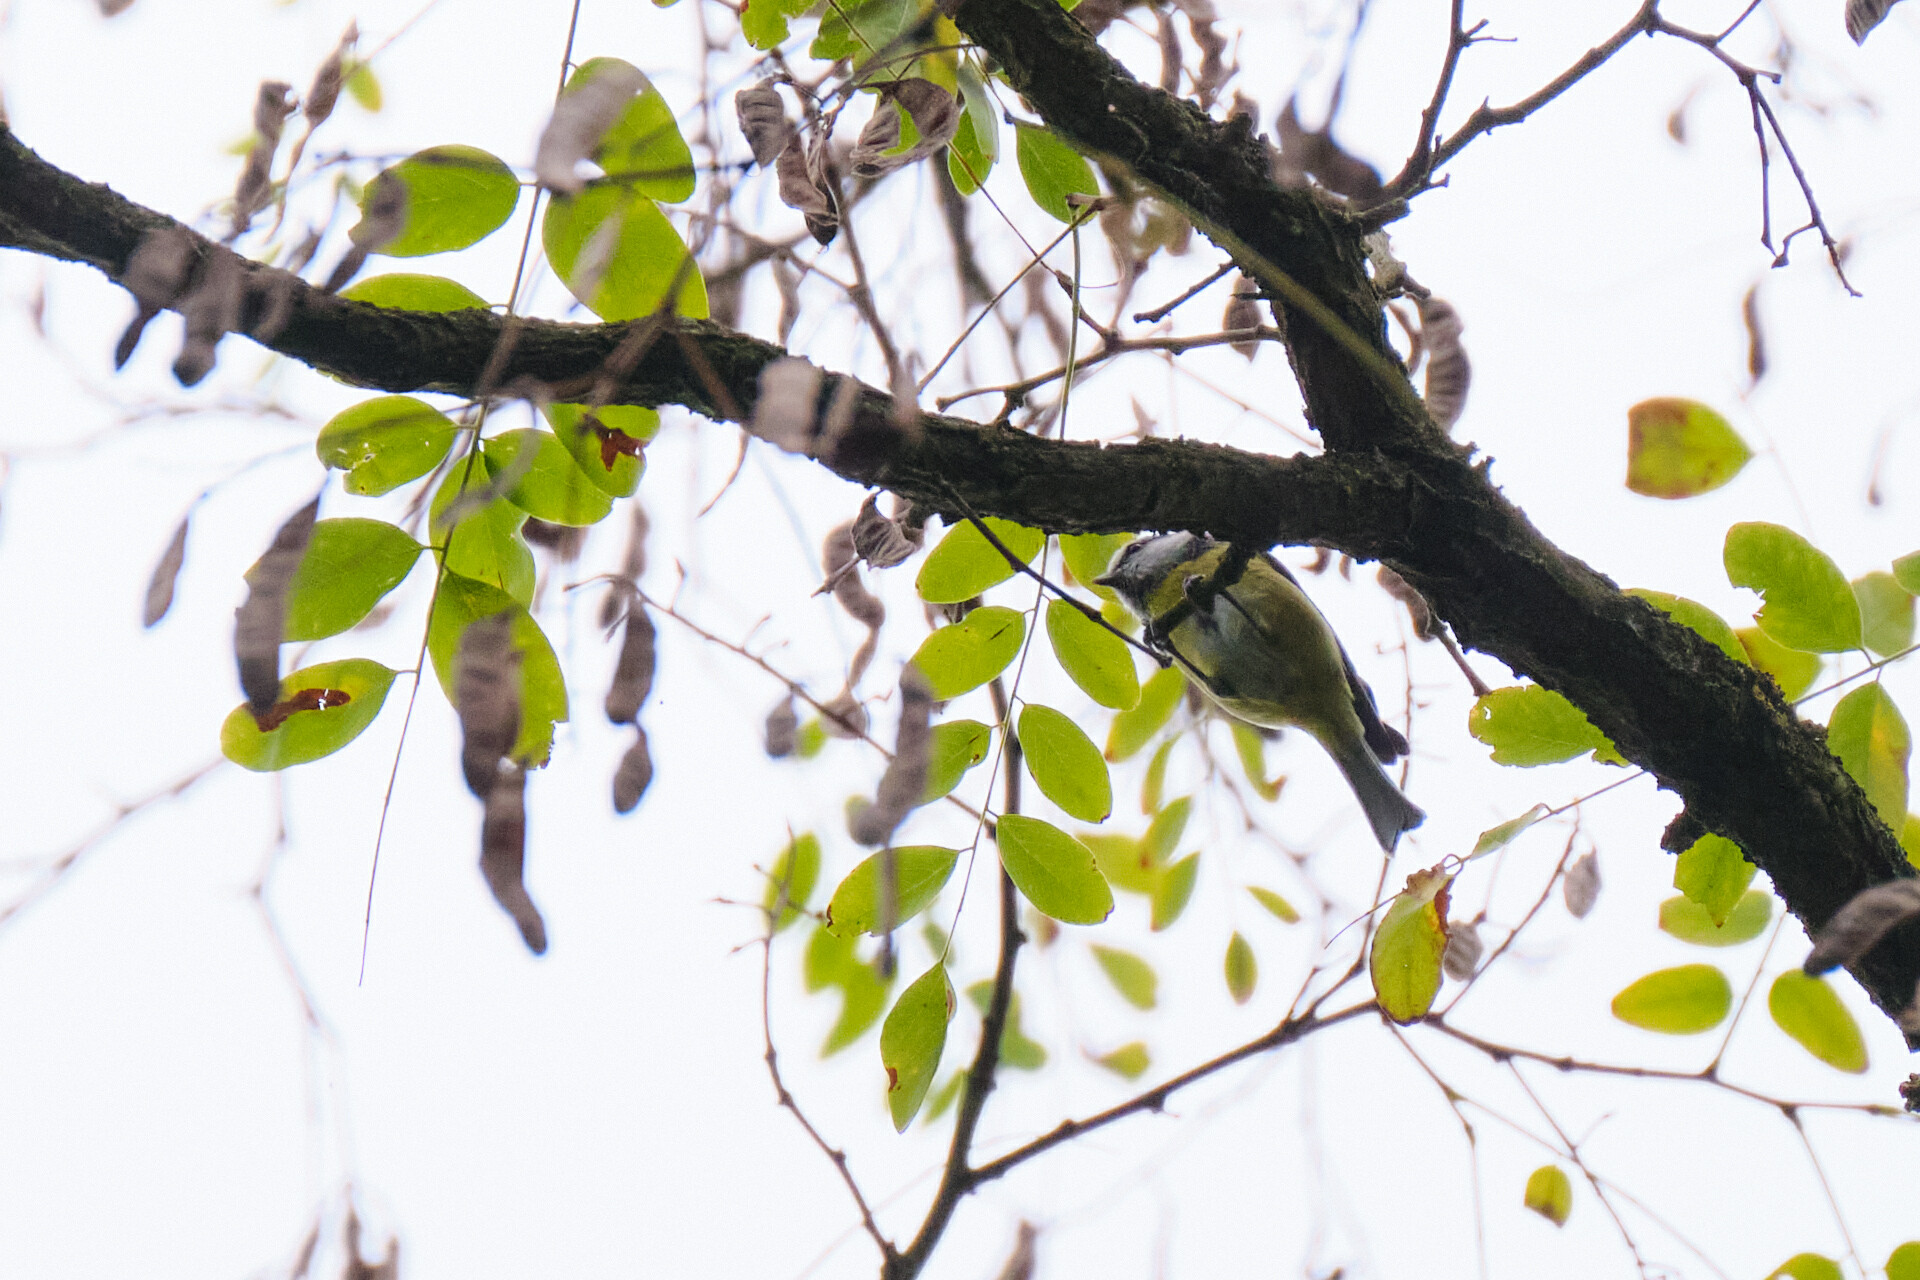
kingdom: Animalia
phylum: Chordata
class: Aves
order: Passeriformes
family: Paridae
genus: Cyanistes
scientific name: Cyanistes caeruleus
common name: Eurasian blue tit
